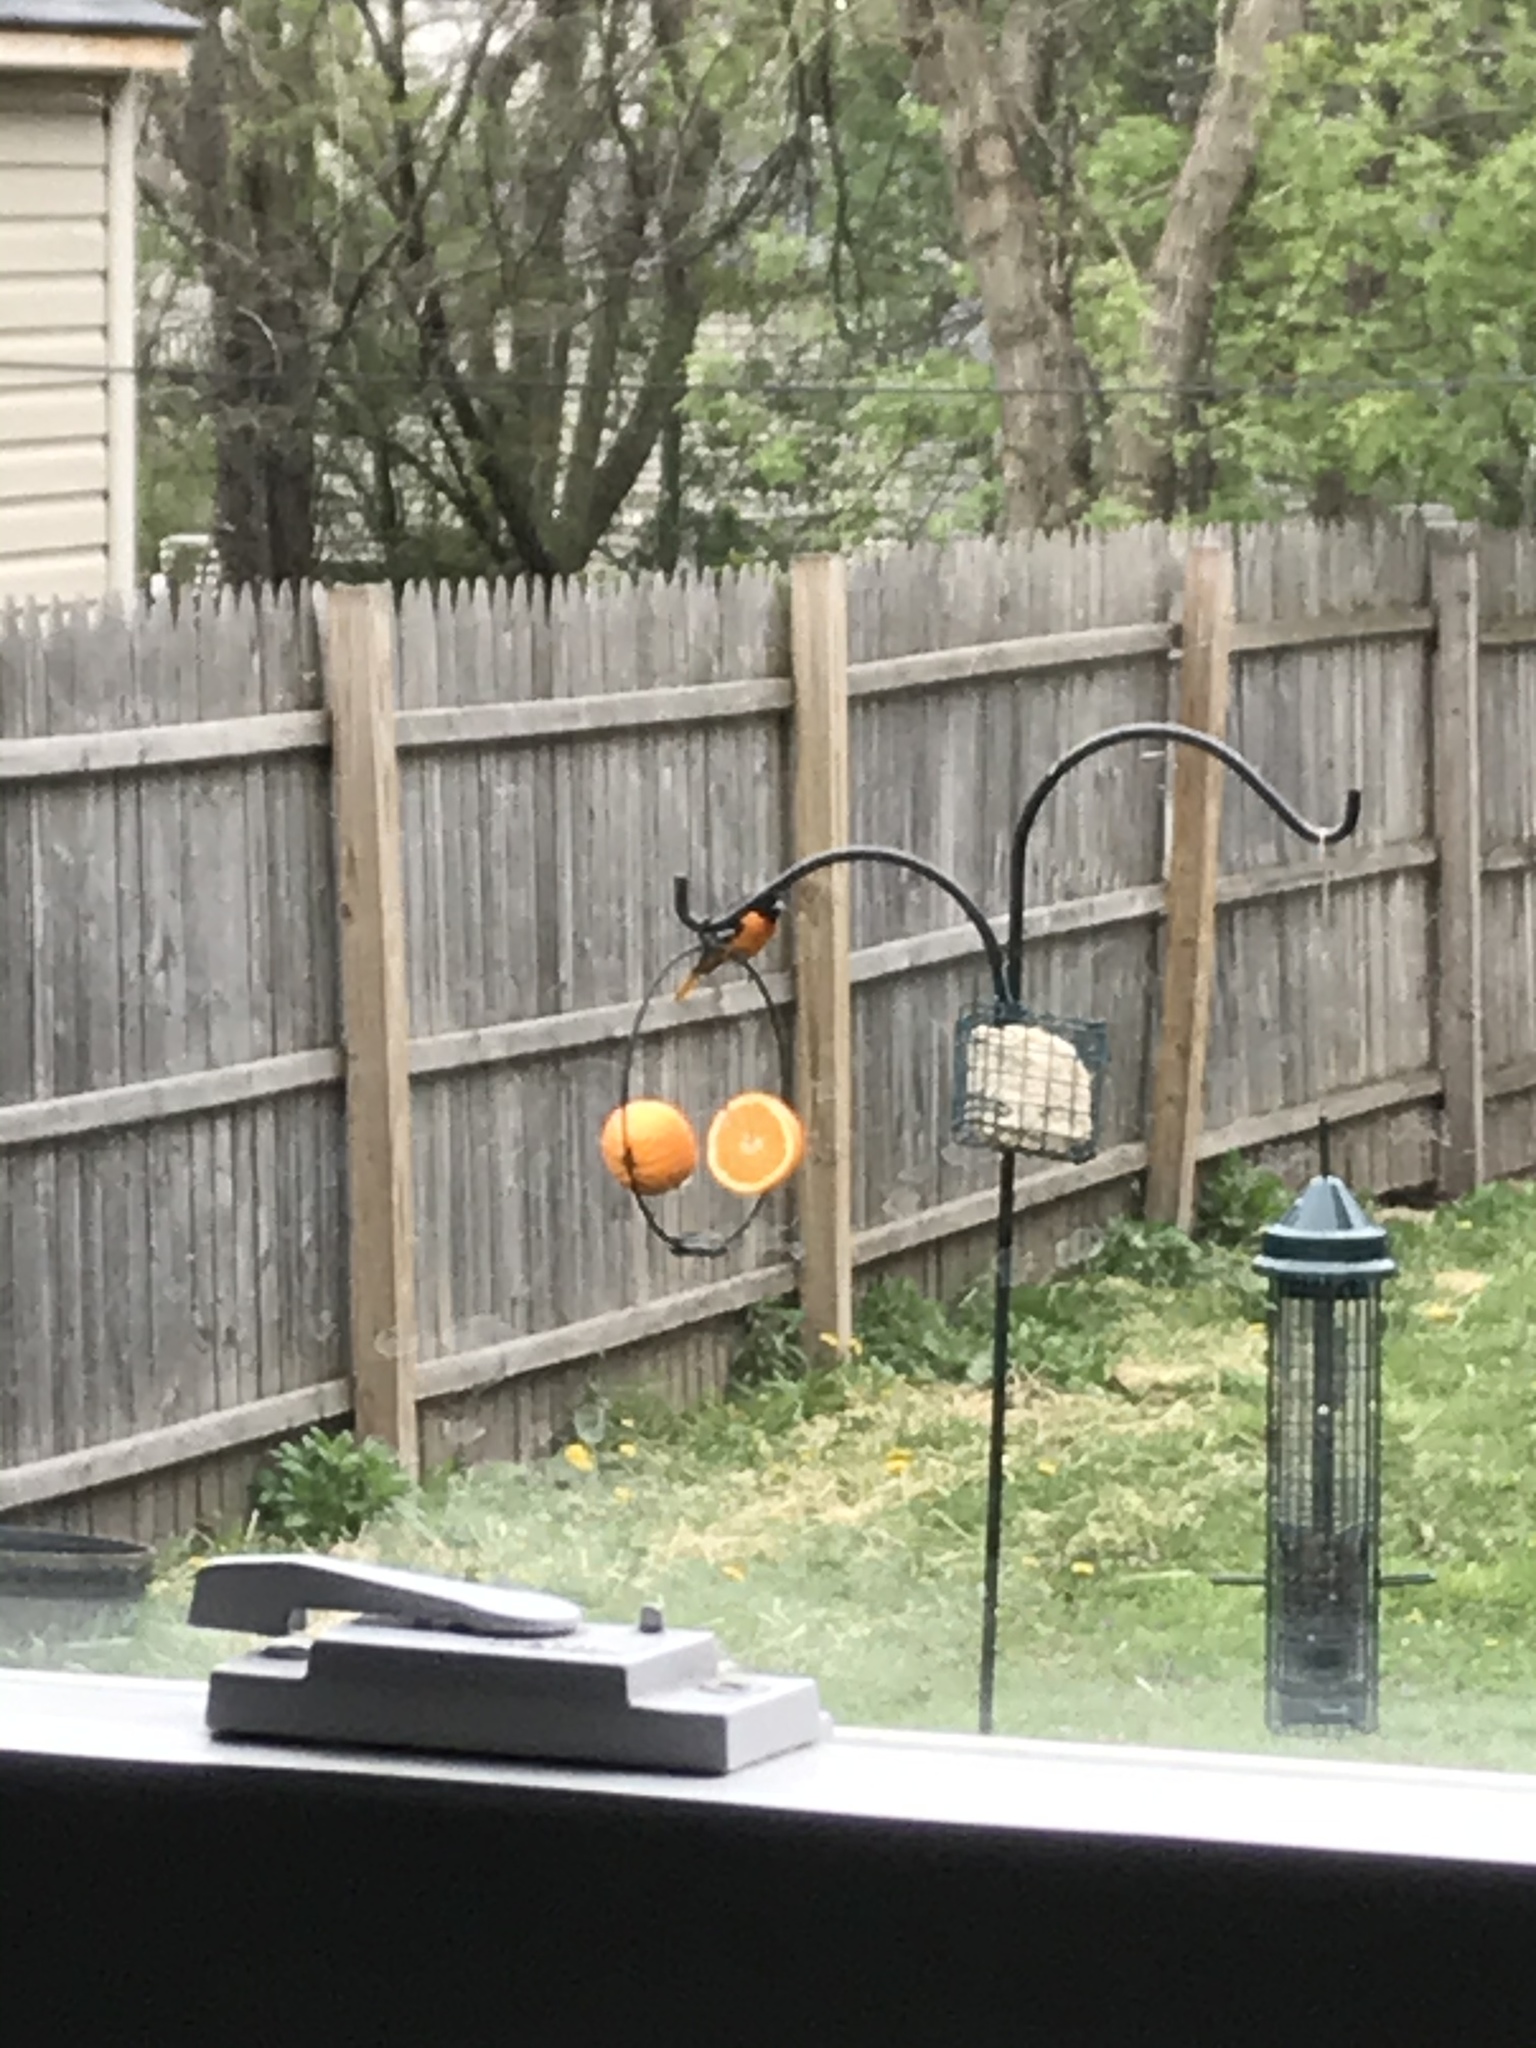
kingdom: Animalia
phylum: Chordata
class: Aves
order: Passeriformes
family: Icteridae
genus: Icterus
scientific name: Icterus galbula
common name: Baltimore oriole
